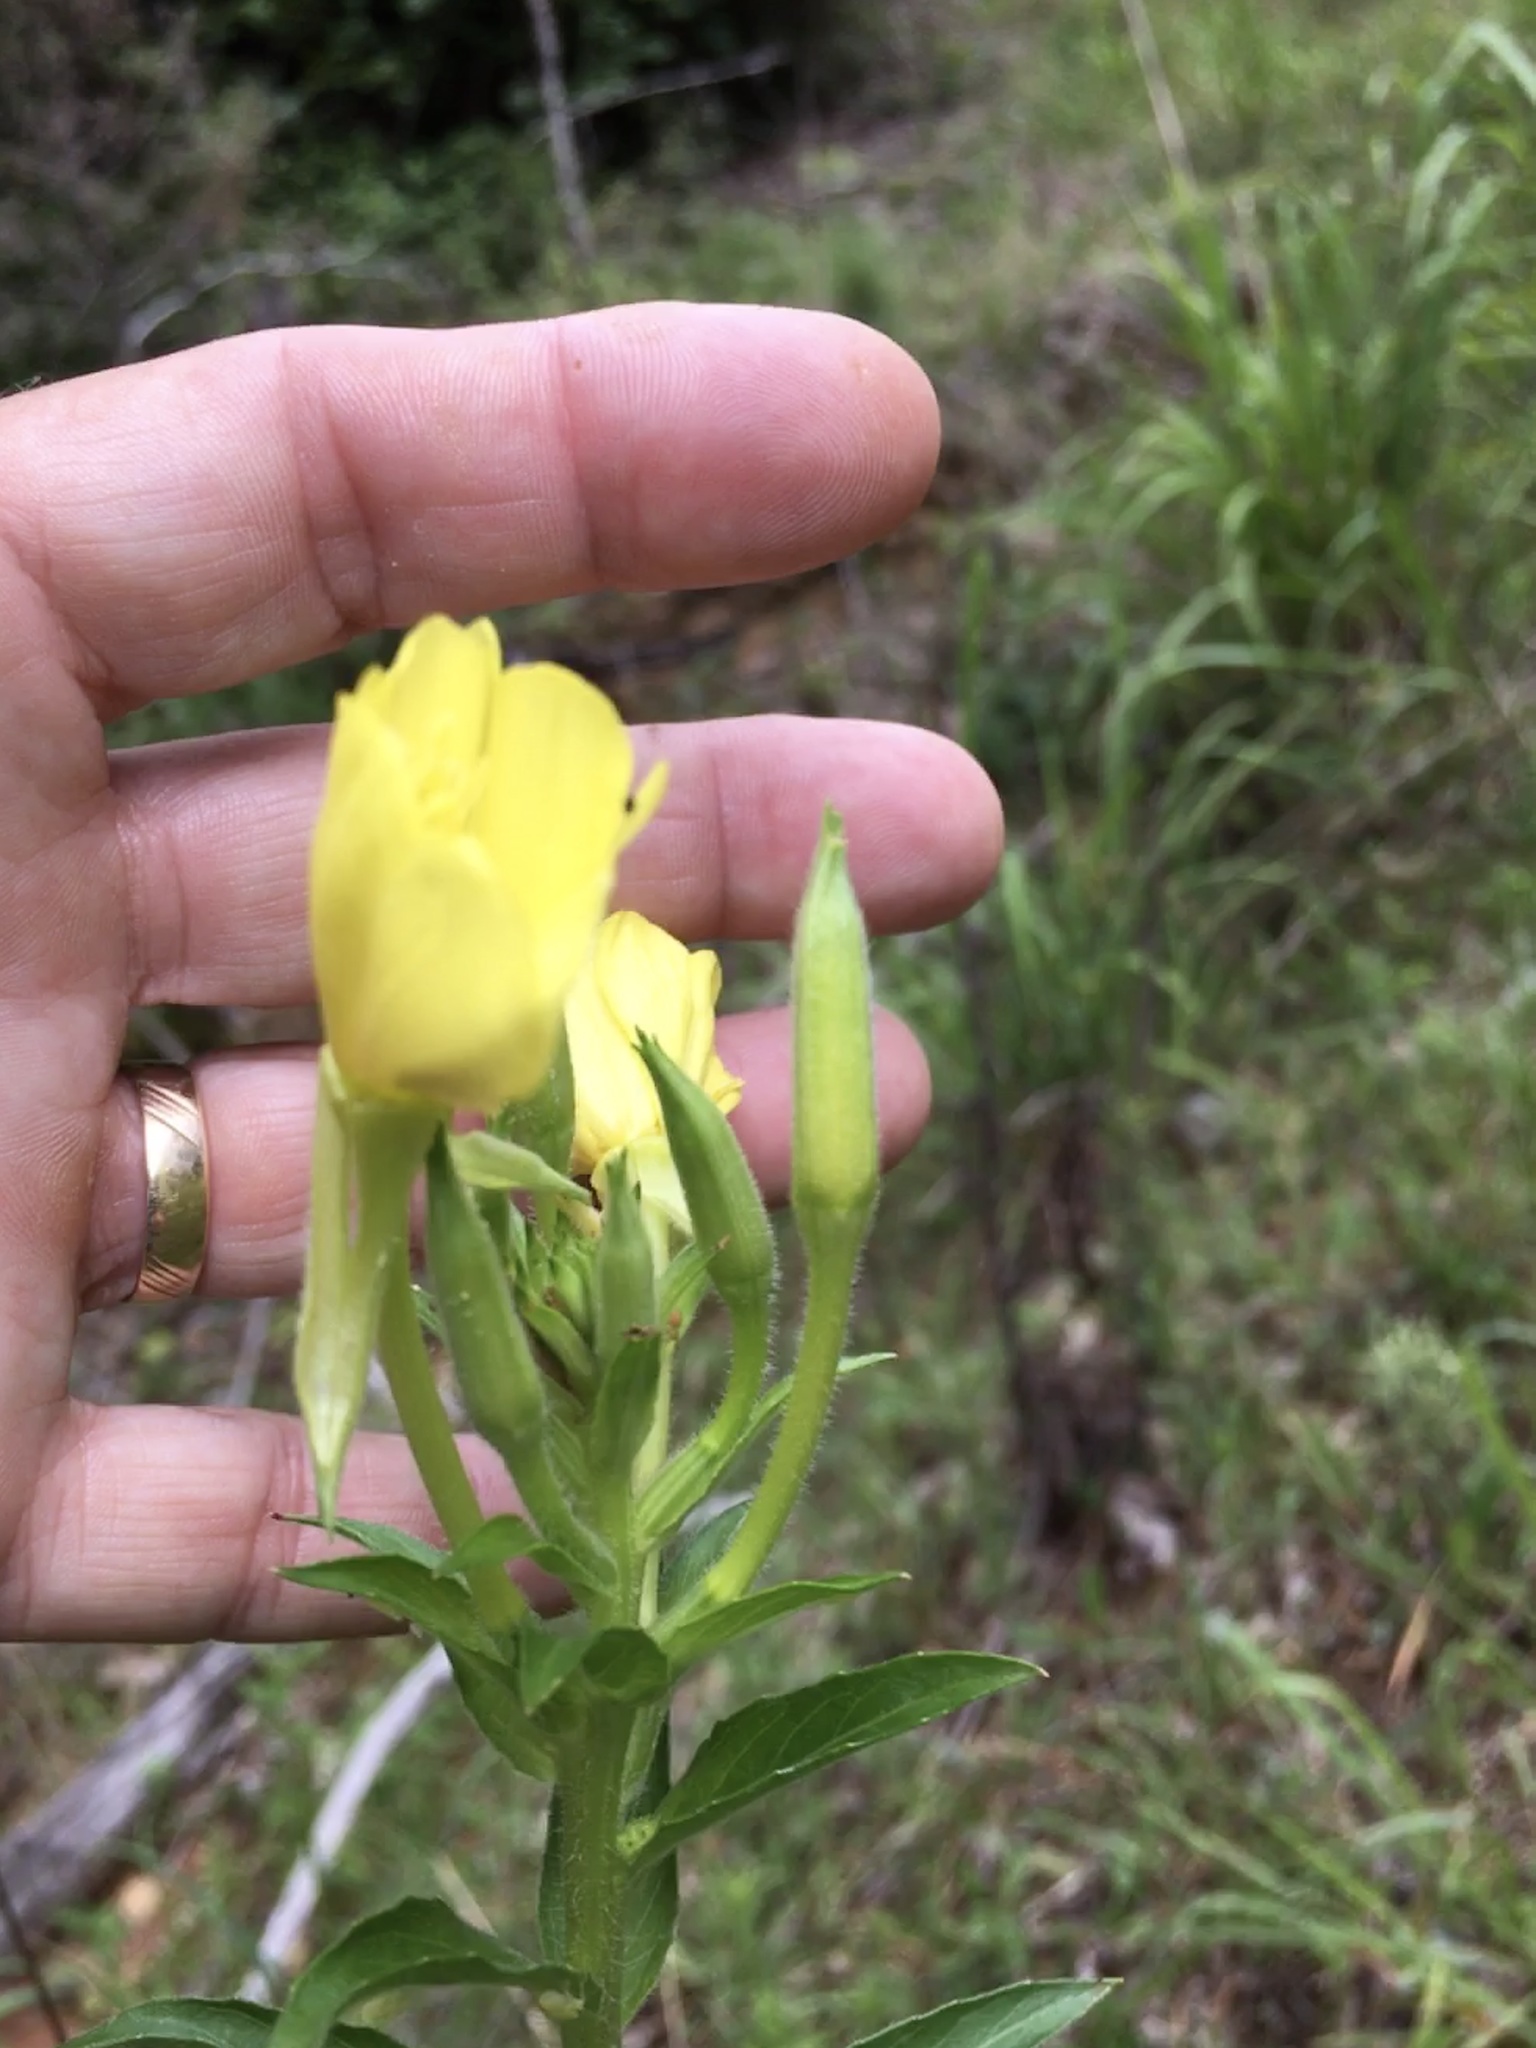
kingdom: Plantae
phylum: Tracheophyta
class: Magnoliopsida
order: Myrtales
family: Onagraceae
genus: Oenothera
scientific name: Oenothera biennis
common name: Common evening-primrose
